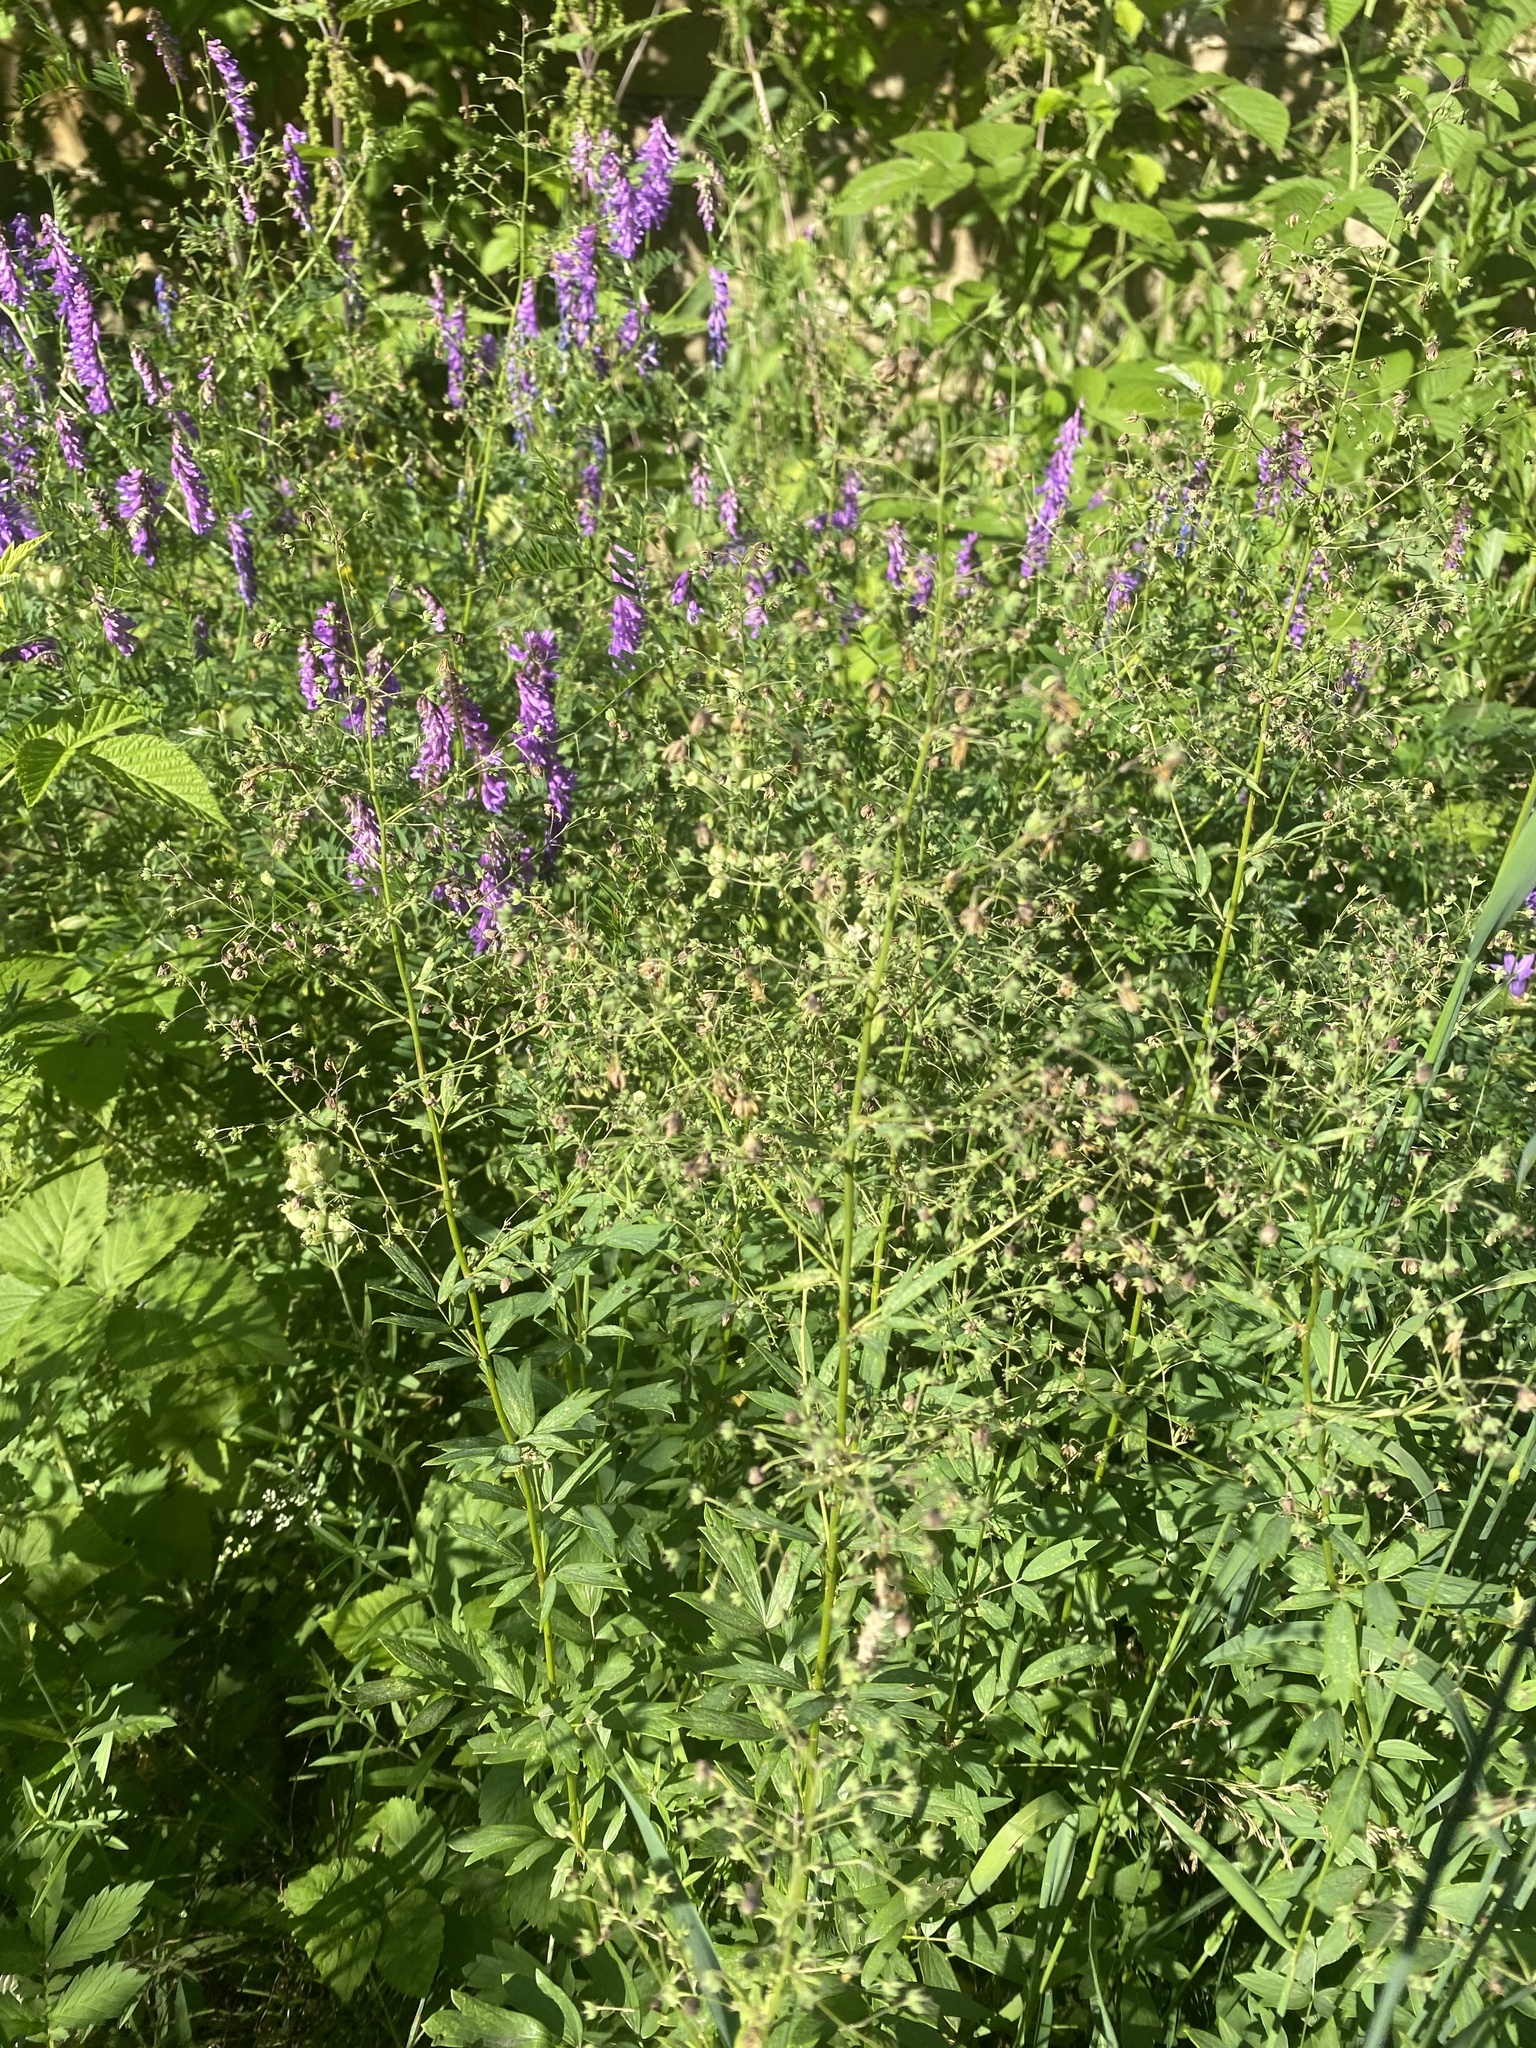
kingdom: Plantae
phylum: Tracheophyta
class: Magnoliopsida
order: Fabales
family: Fabaceae
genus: Vicia
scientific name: Vicia cracca
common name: Bird vetch
